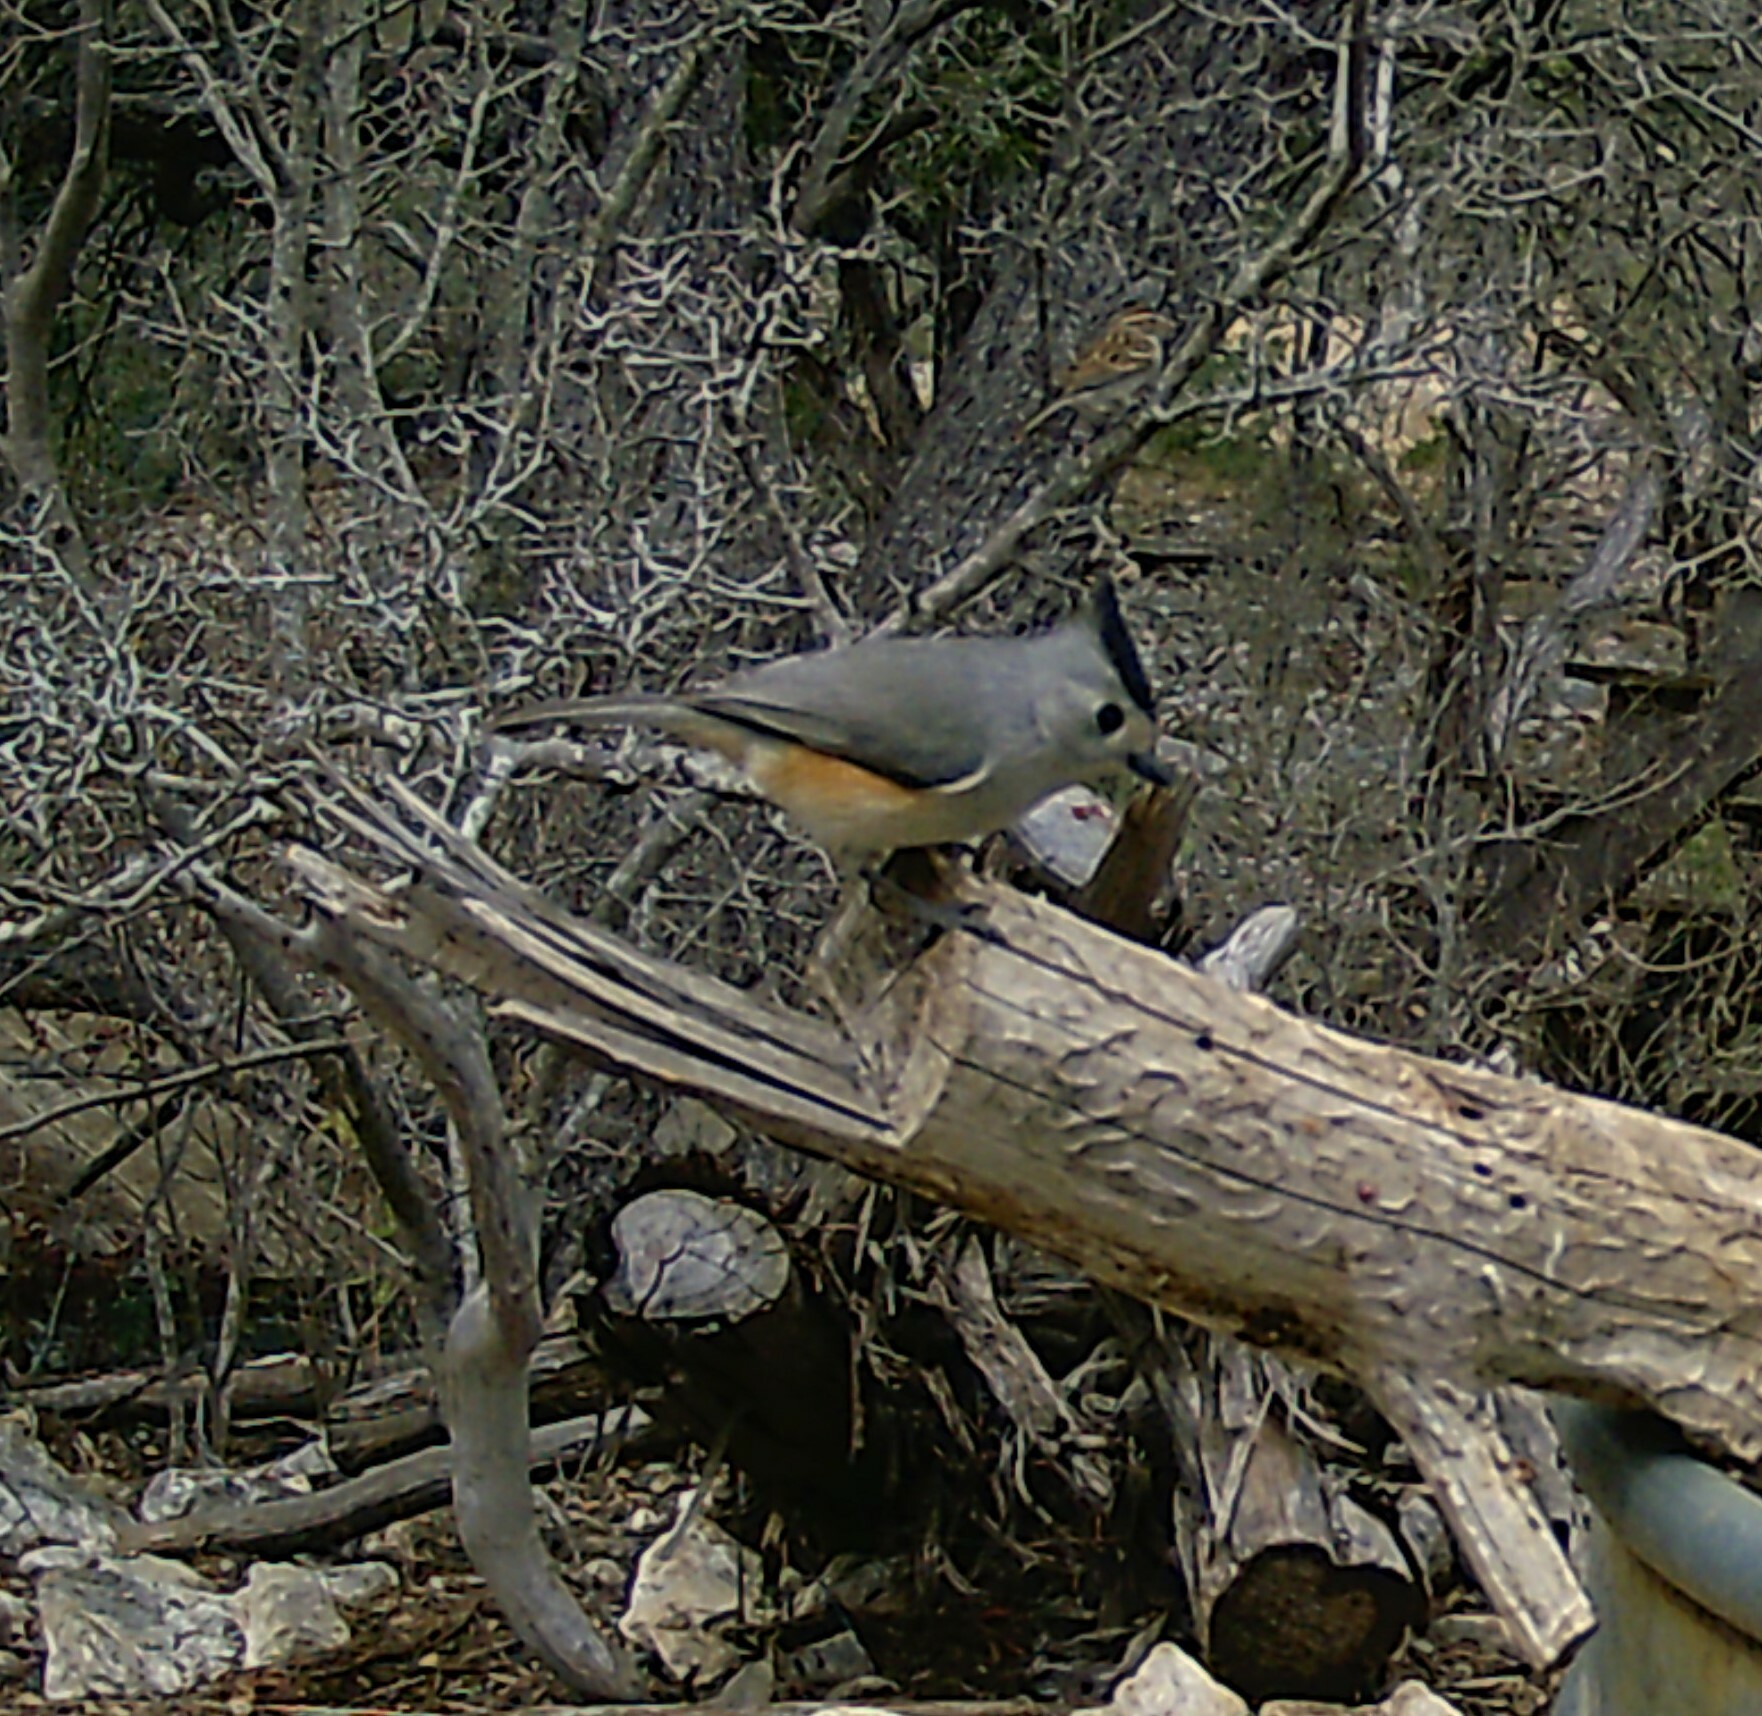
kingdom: Animalia
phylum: Chordata
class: Aves
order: Passeriformes
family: Paridae
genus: Baeolophus
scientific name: Baeolophus atricristatus
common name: Black-crested titmouse
